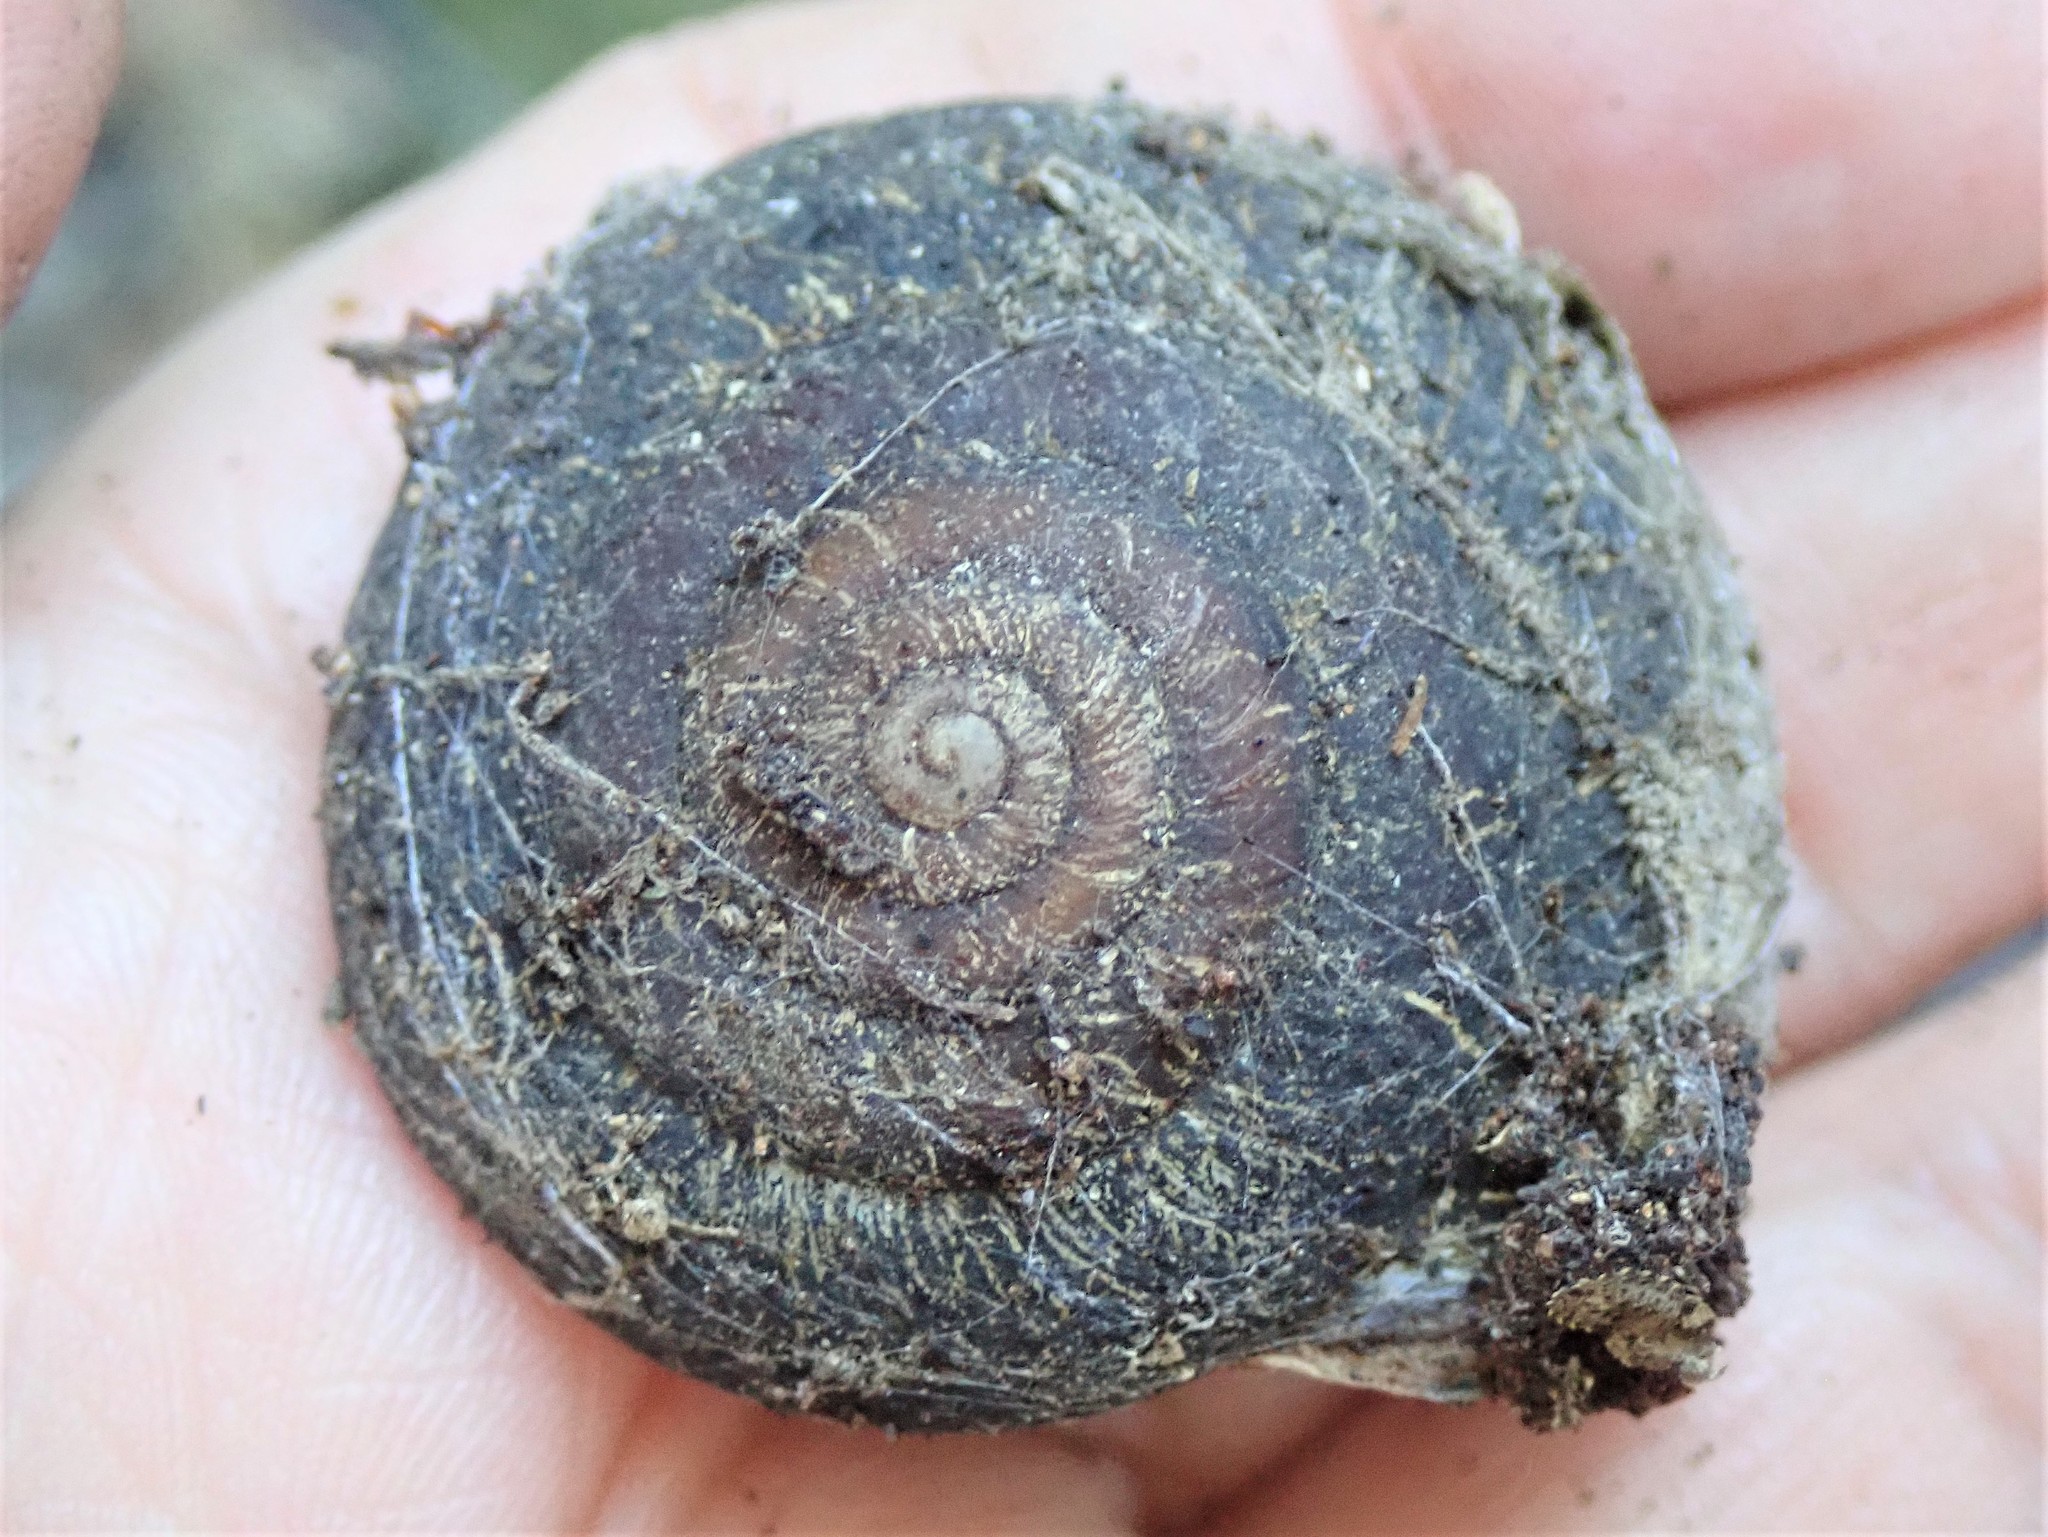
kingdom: Animalia
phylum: Mollusca
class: Gastropoda
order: Stylommatophora
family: Xanthonychidae
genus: Monadenia
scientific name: Monadenia infumata
